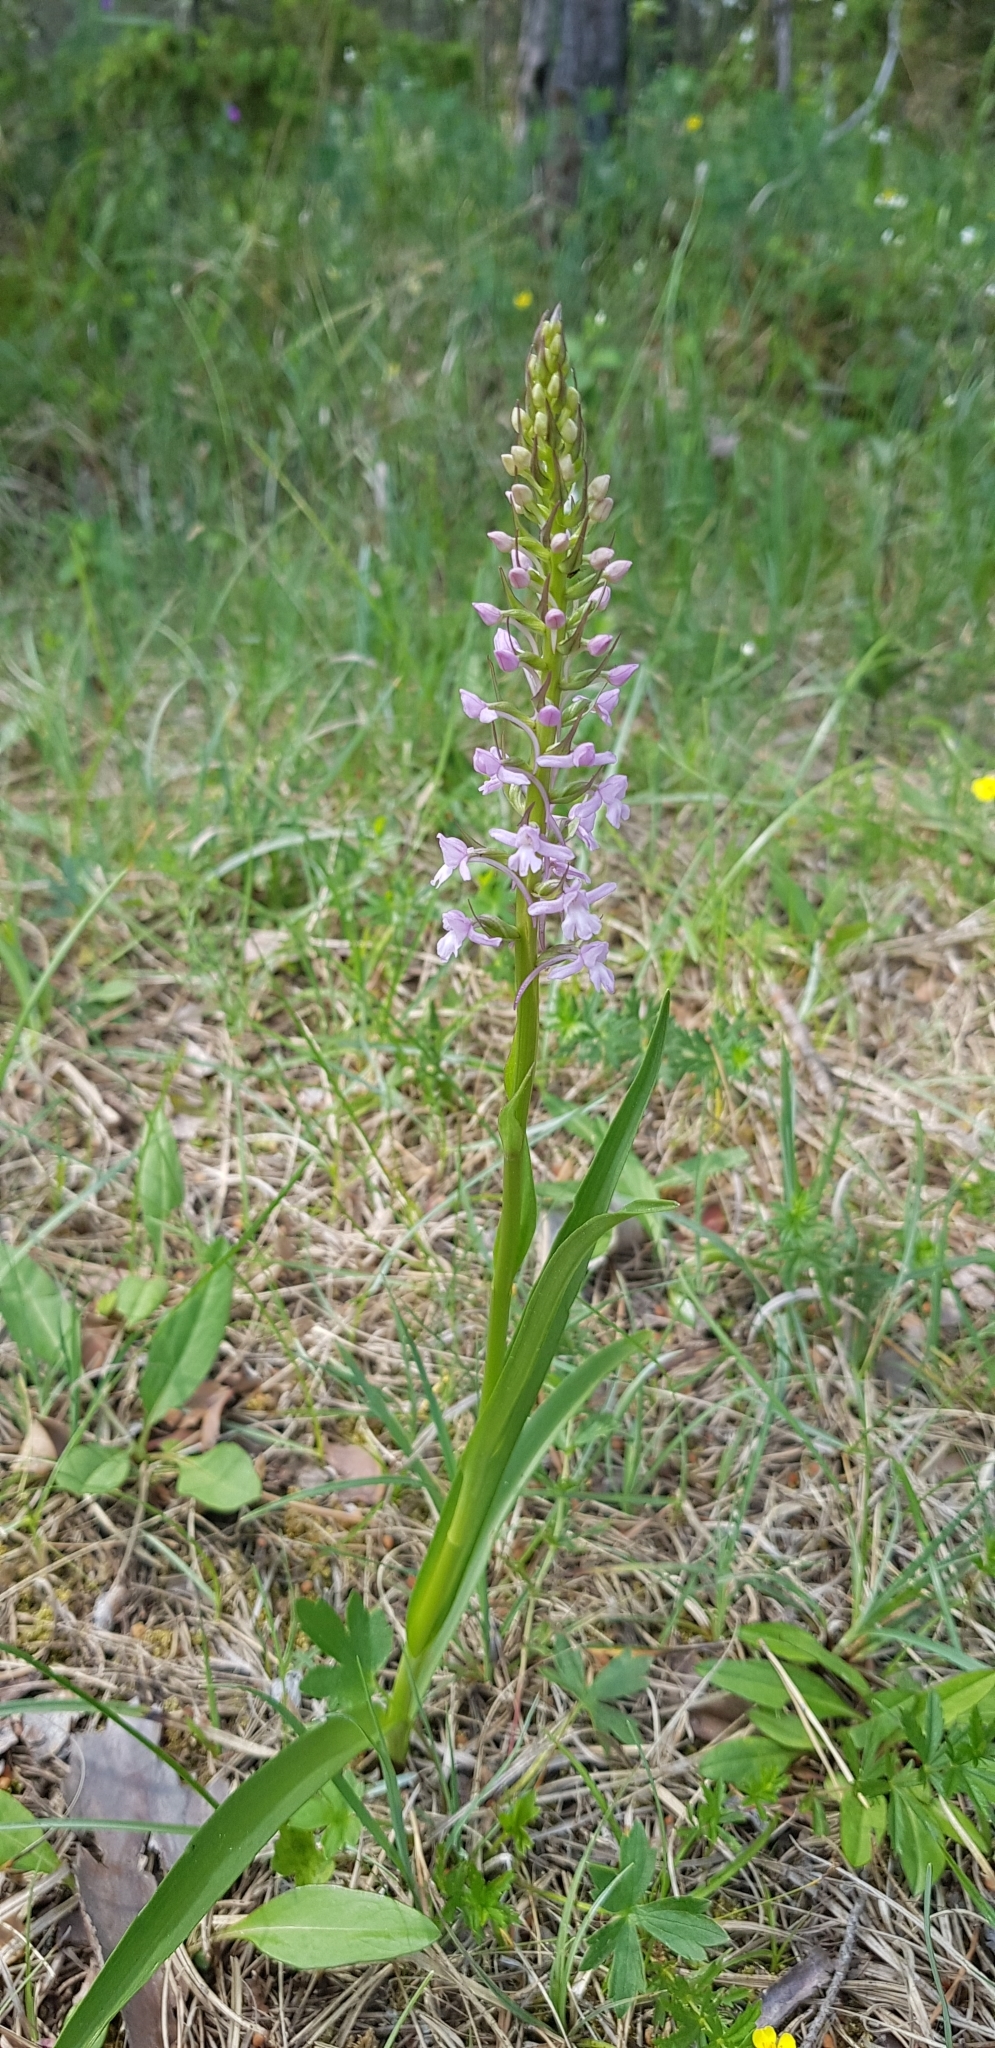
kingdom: Plantae
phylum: Tracheophyta
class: Liliopsida
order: Asparagales
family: Orchidaceae
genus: Gymnadenia
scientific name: Gymnadenia conopsea
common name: Fragrant orchid
